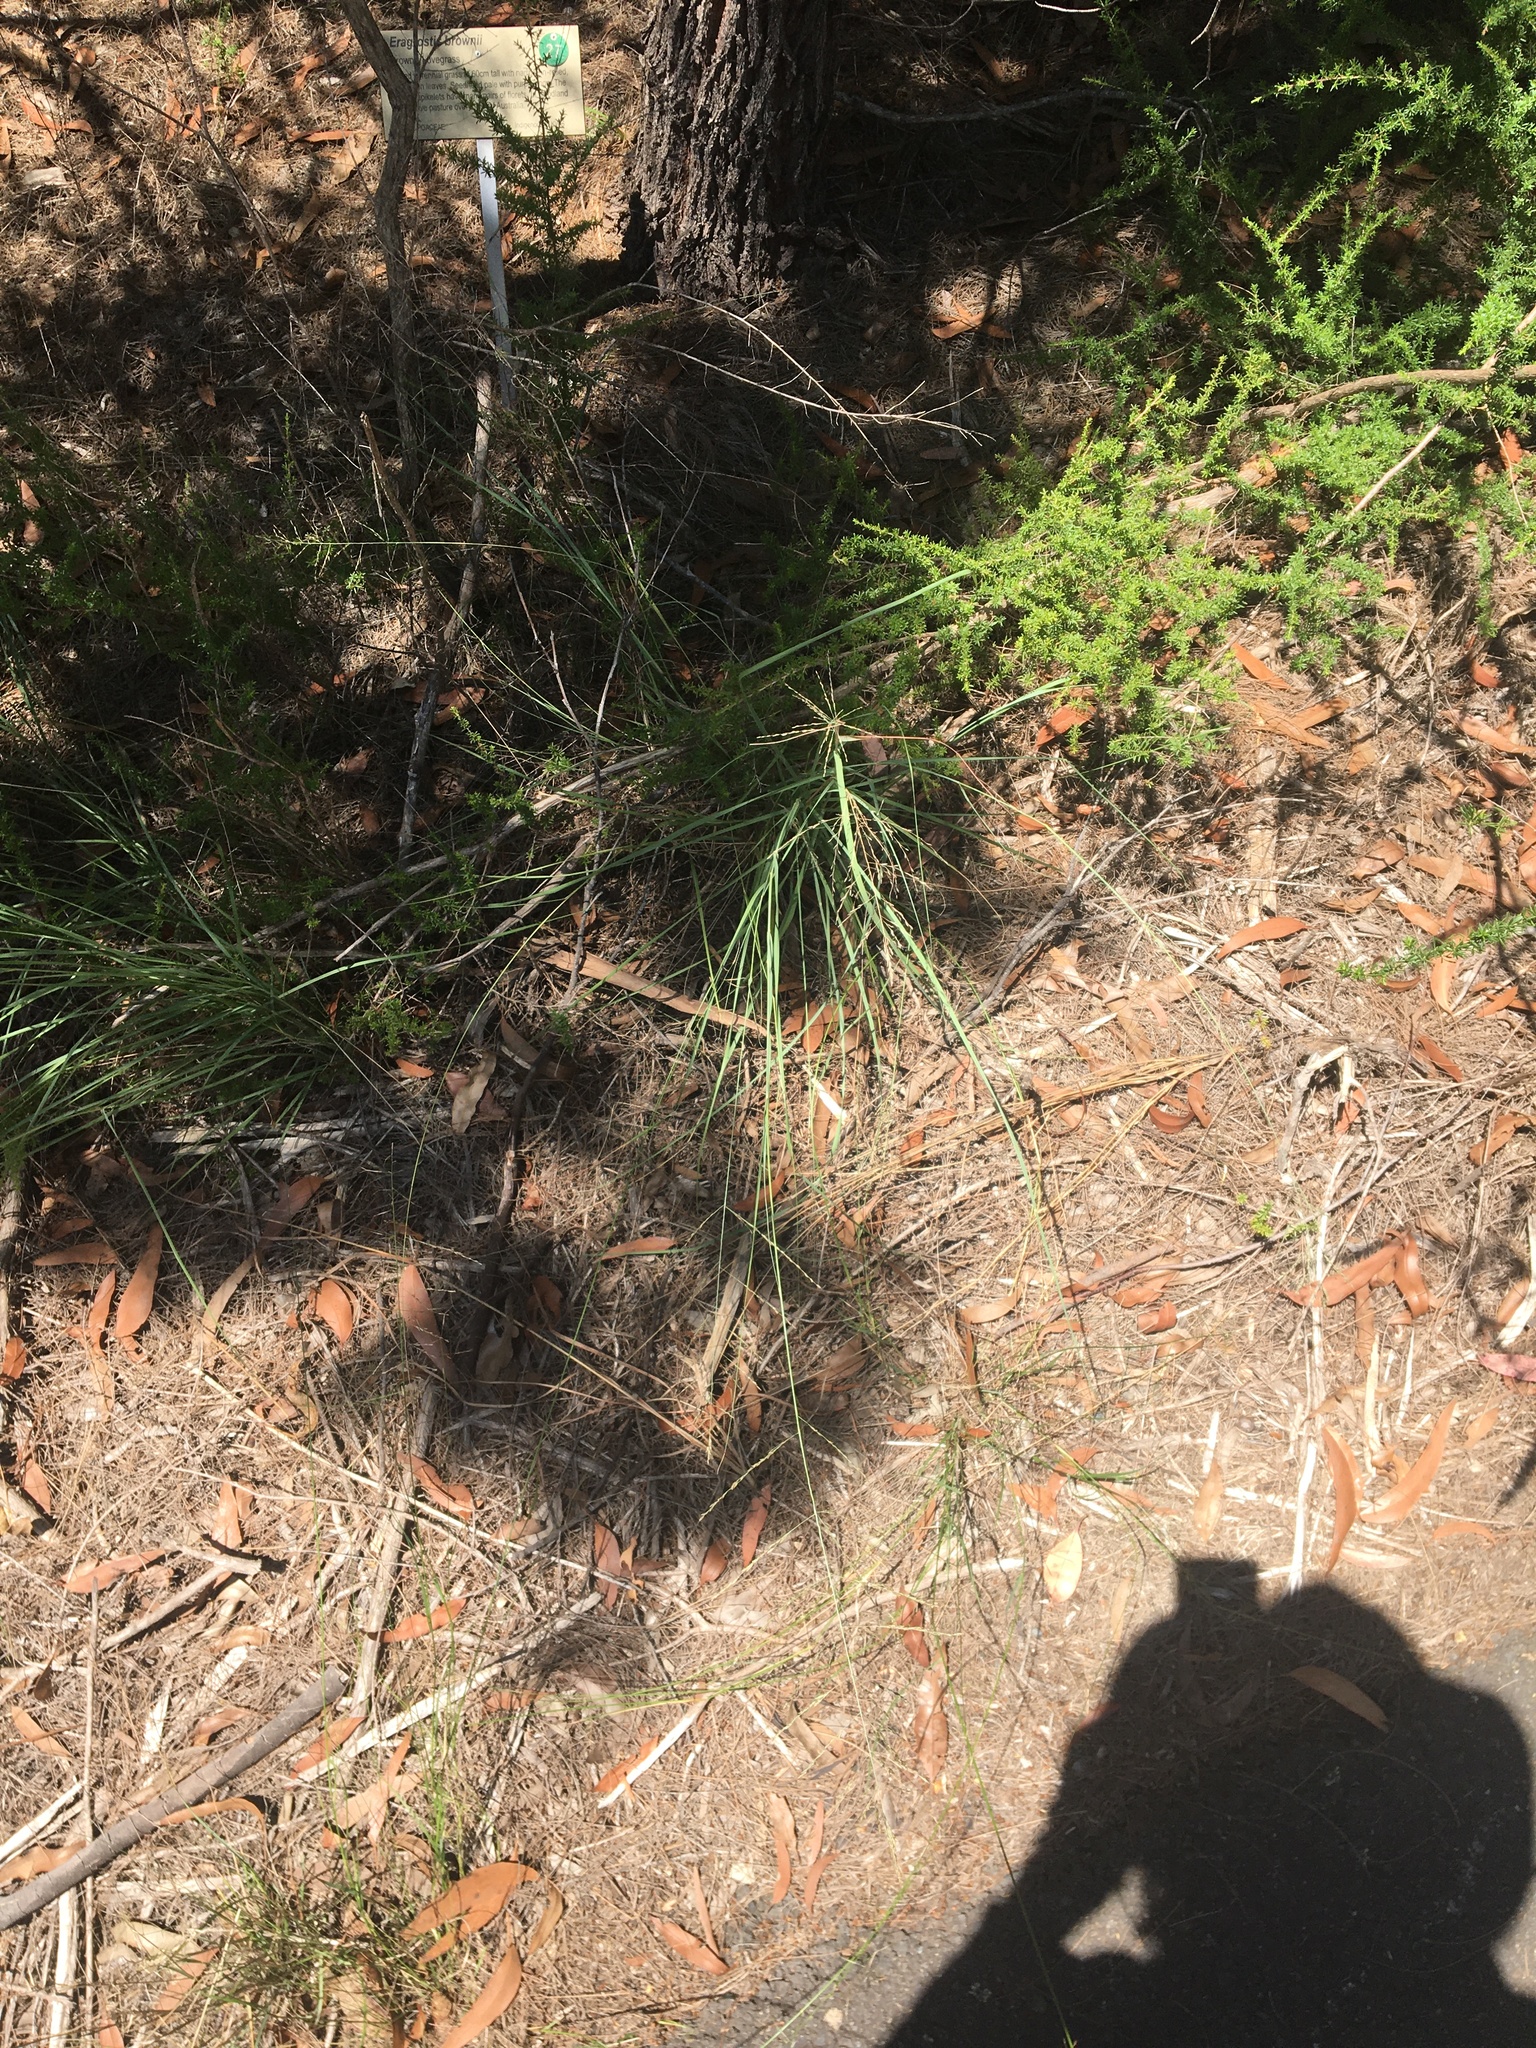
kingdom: Plantae
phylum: Tracheophyta
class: Liliopsida
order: Poales
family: Poaceae
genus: Eragrostis
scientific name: Eragrostis curvula
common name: African love-grass
